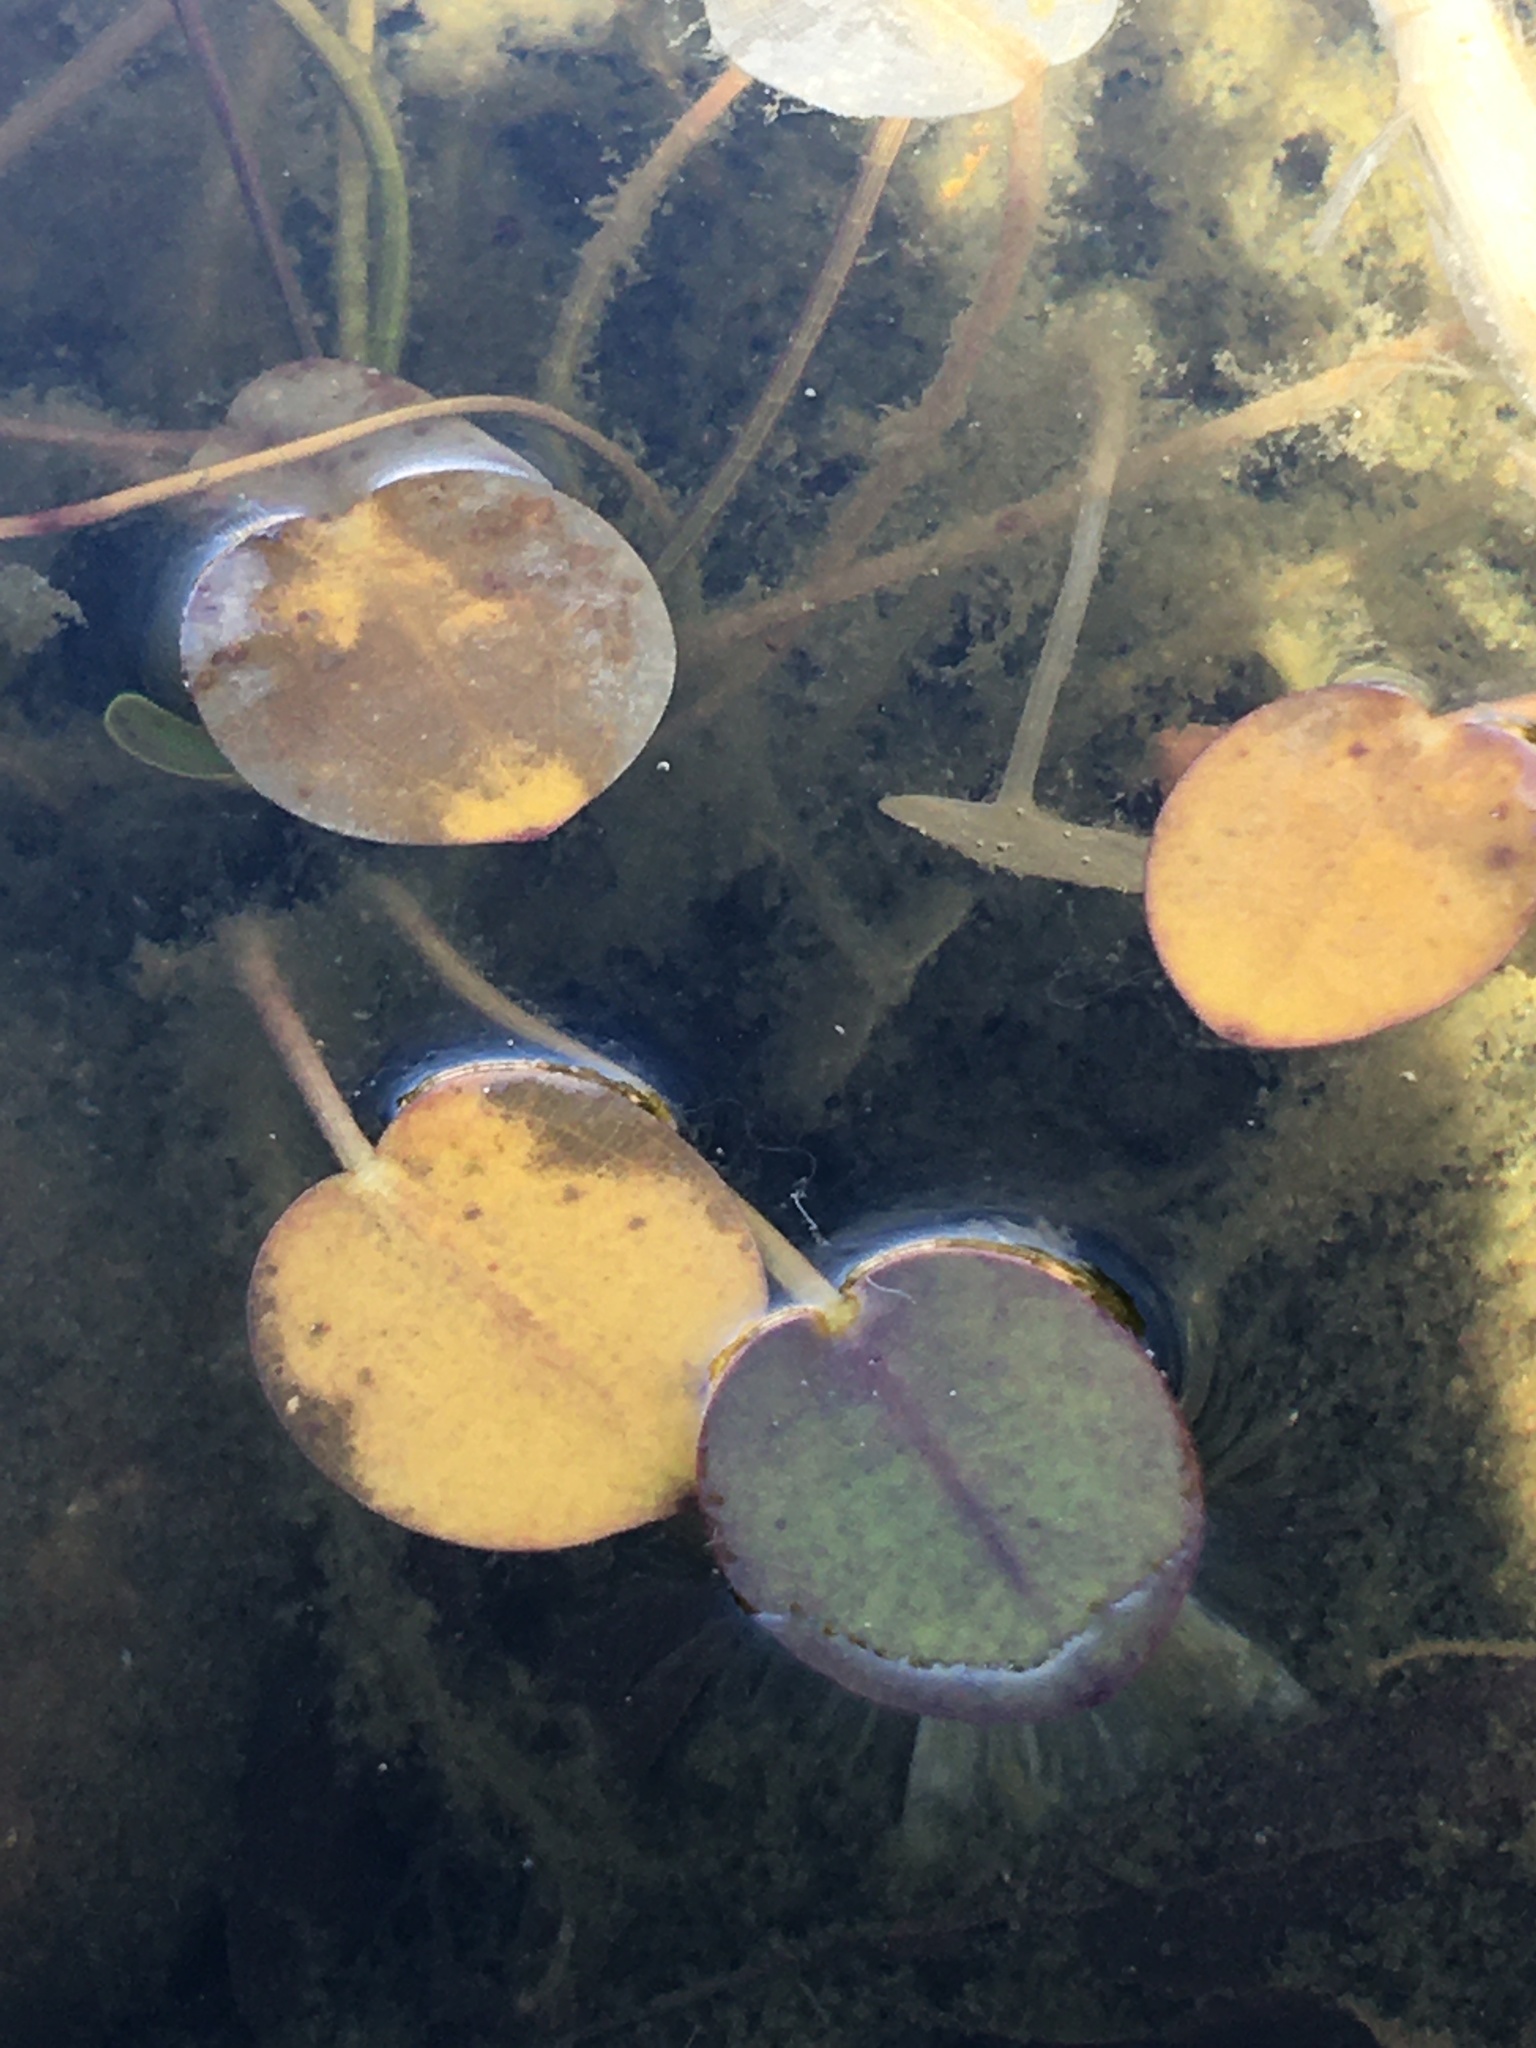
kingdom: Plantae
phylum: Tracheophyta
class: Liliopsida
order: Alismatales
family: Hydrocharitaceae
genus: Hydrocharis
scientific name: Hydrocharis spongia
